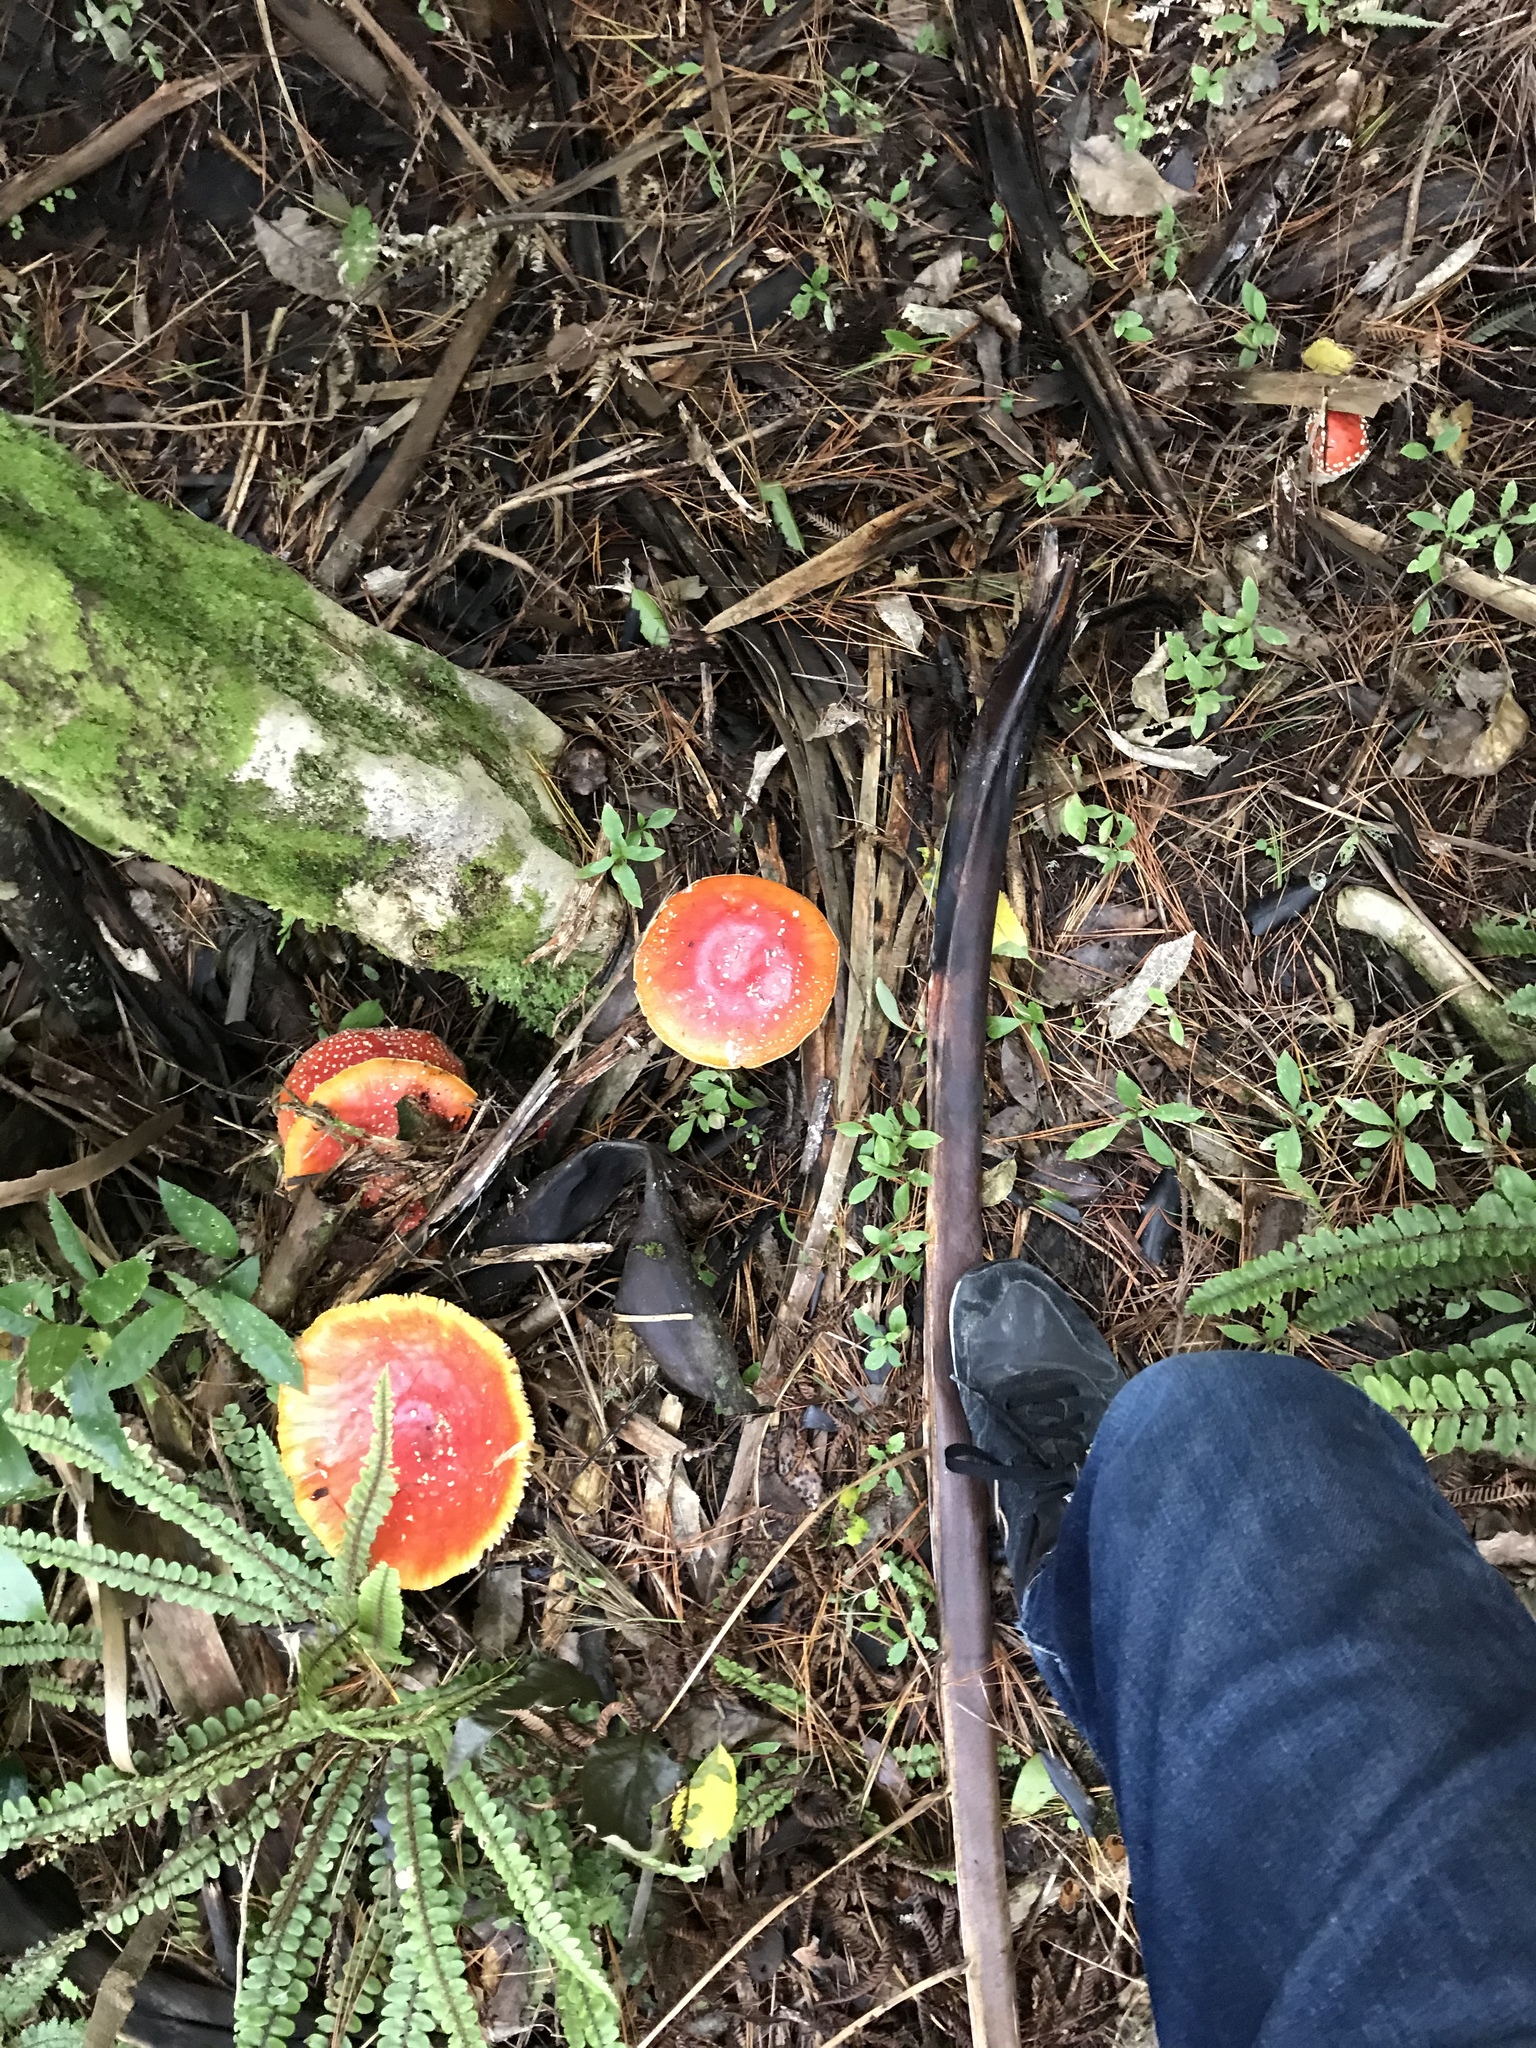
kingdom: Fungi
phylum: Basidiomycota
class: Agaricomycetes
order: Agaricales
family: Amanitaceae
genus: Amanita
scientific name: Amanita muscaria
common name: Fly agaric
